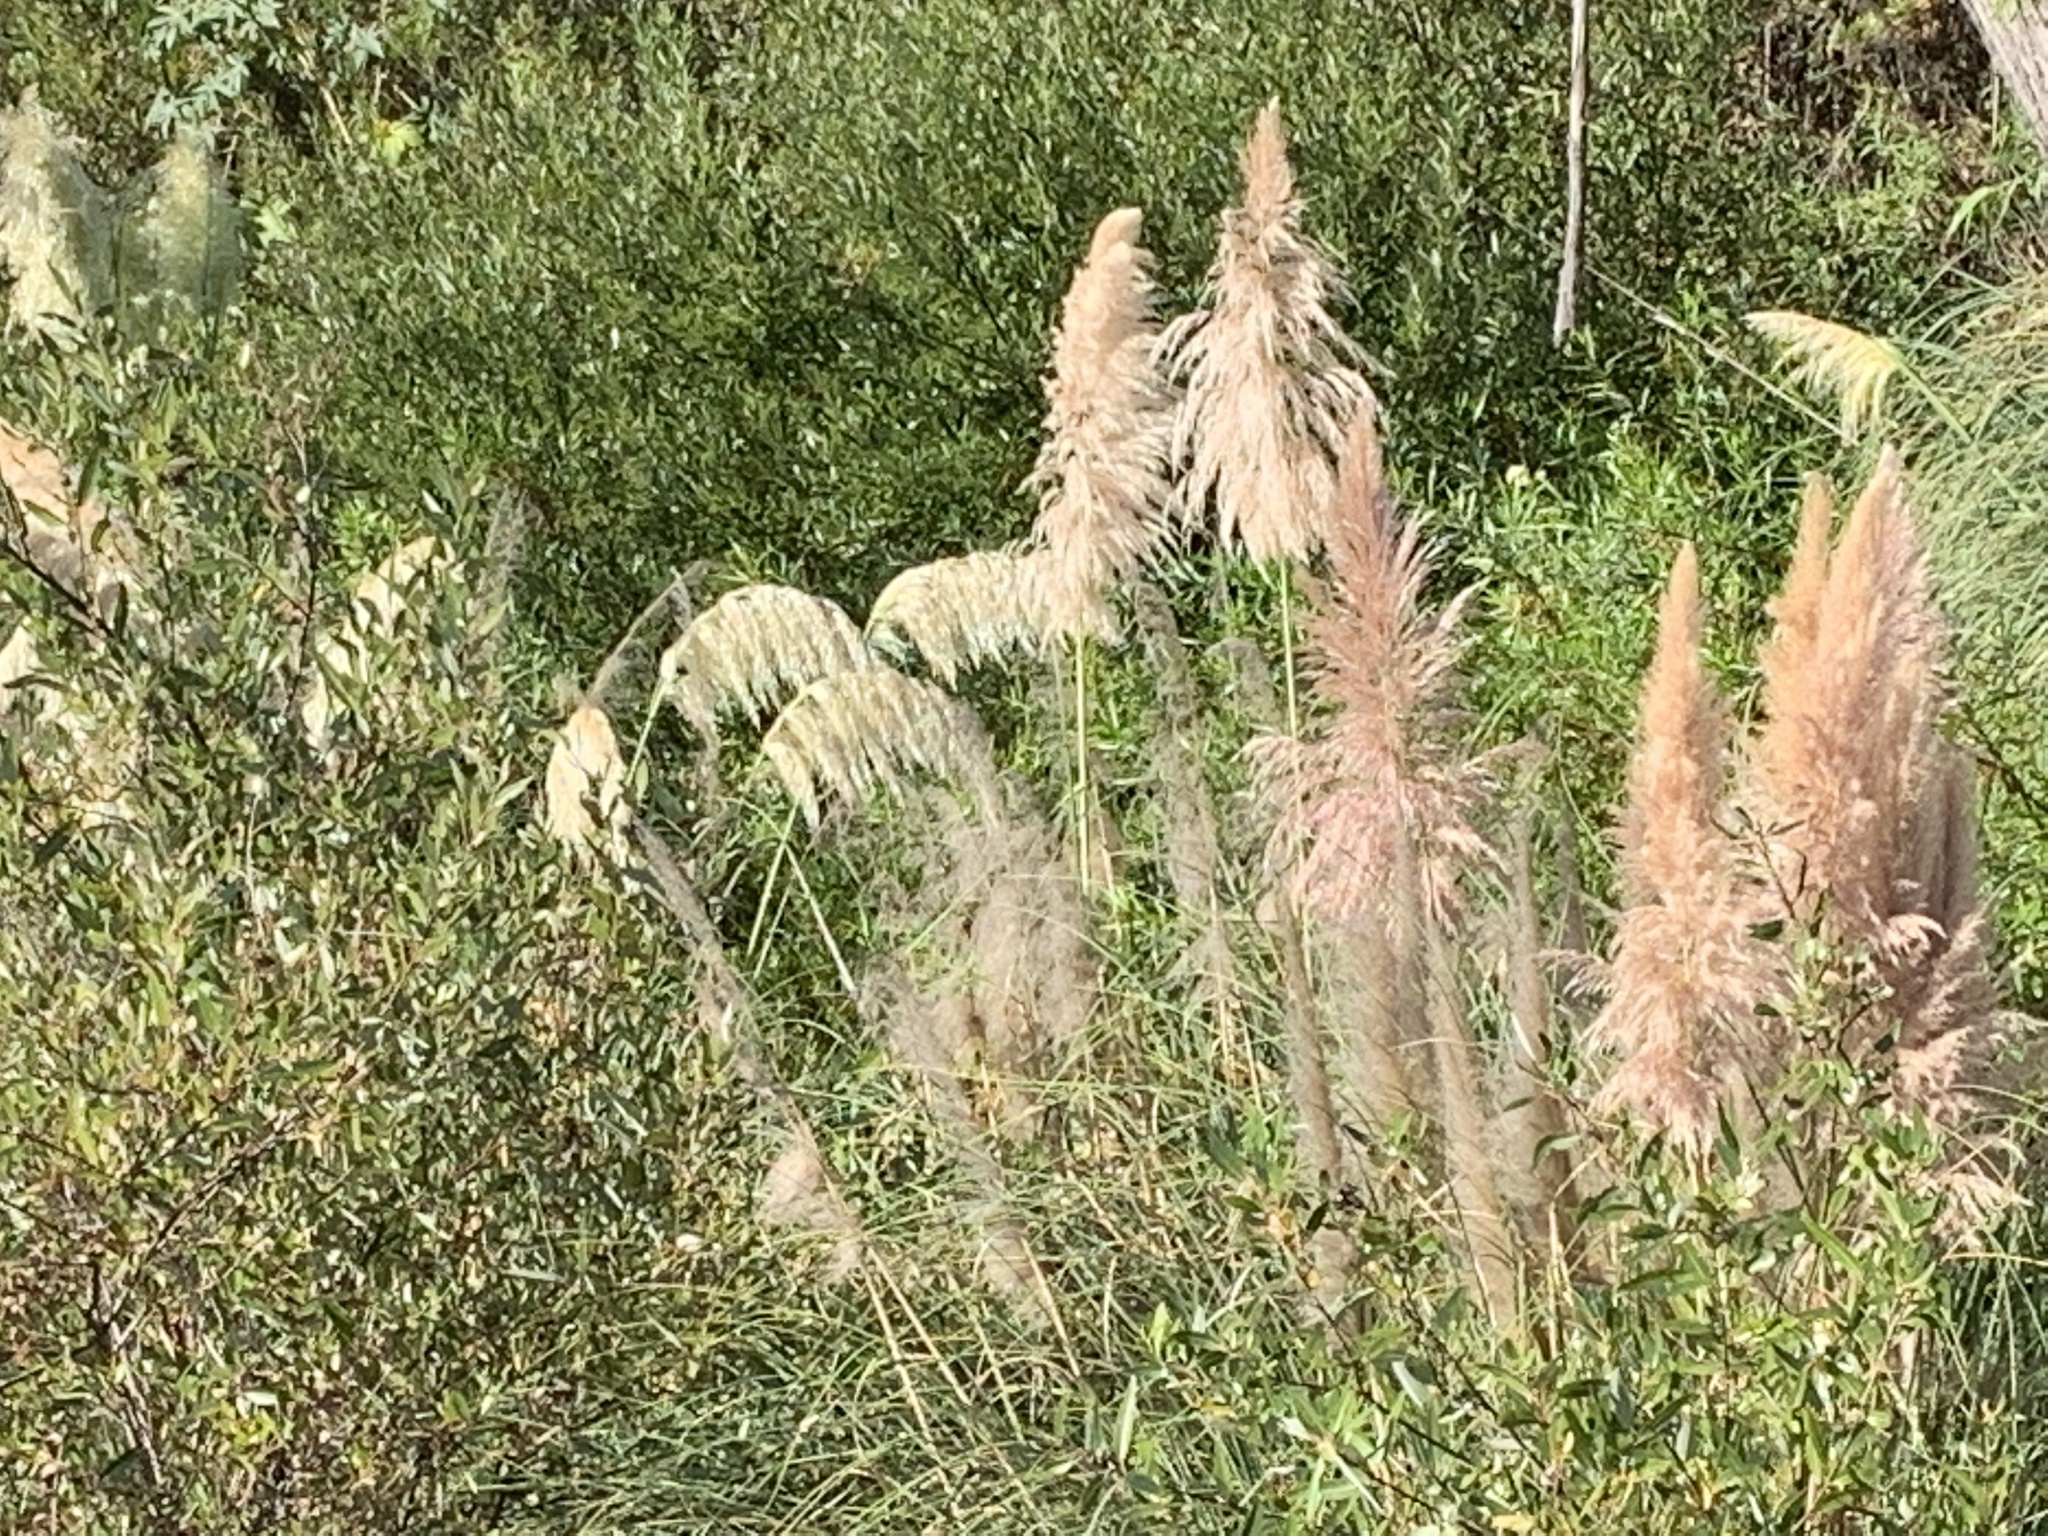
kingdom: Plantae
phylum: Tracheophyta
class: Liliopsida
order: Poales
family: Poaceae
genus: Cortaderia
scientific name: Cortaderia selloana
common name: Uruguayan pampas grass
